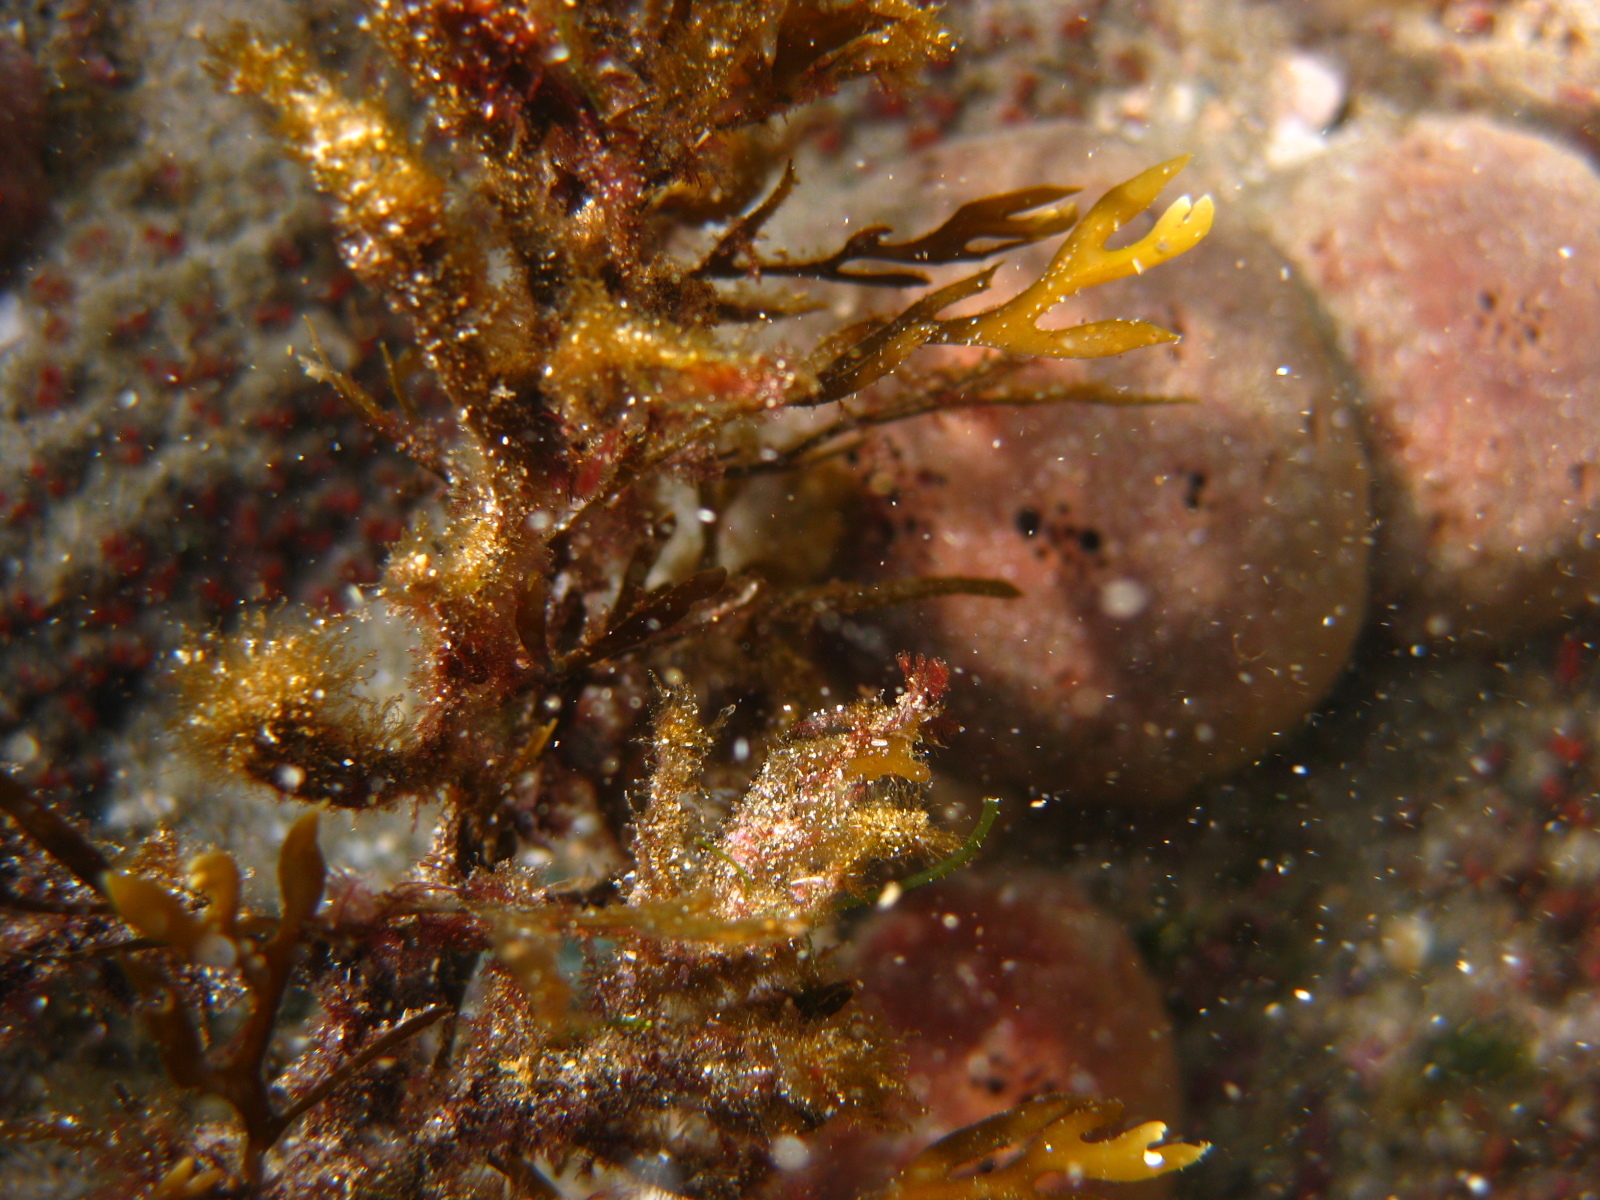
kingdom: Chromista
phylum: Ochrophyta
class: Phaeophyceae
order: Fucales
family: Sargassaceae
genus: Carpophyllum
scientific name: Carpophyllum plumosum
